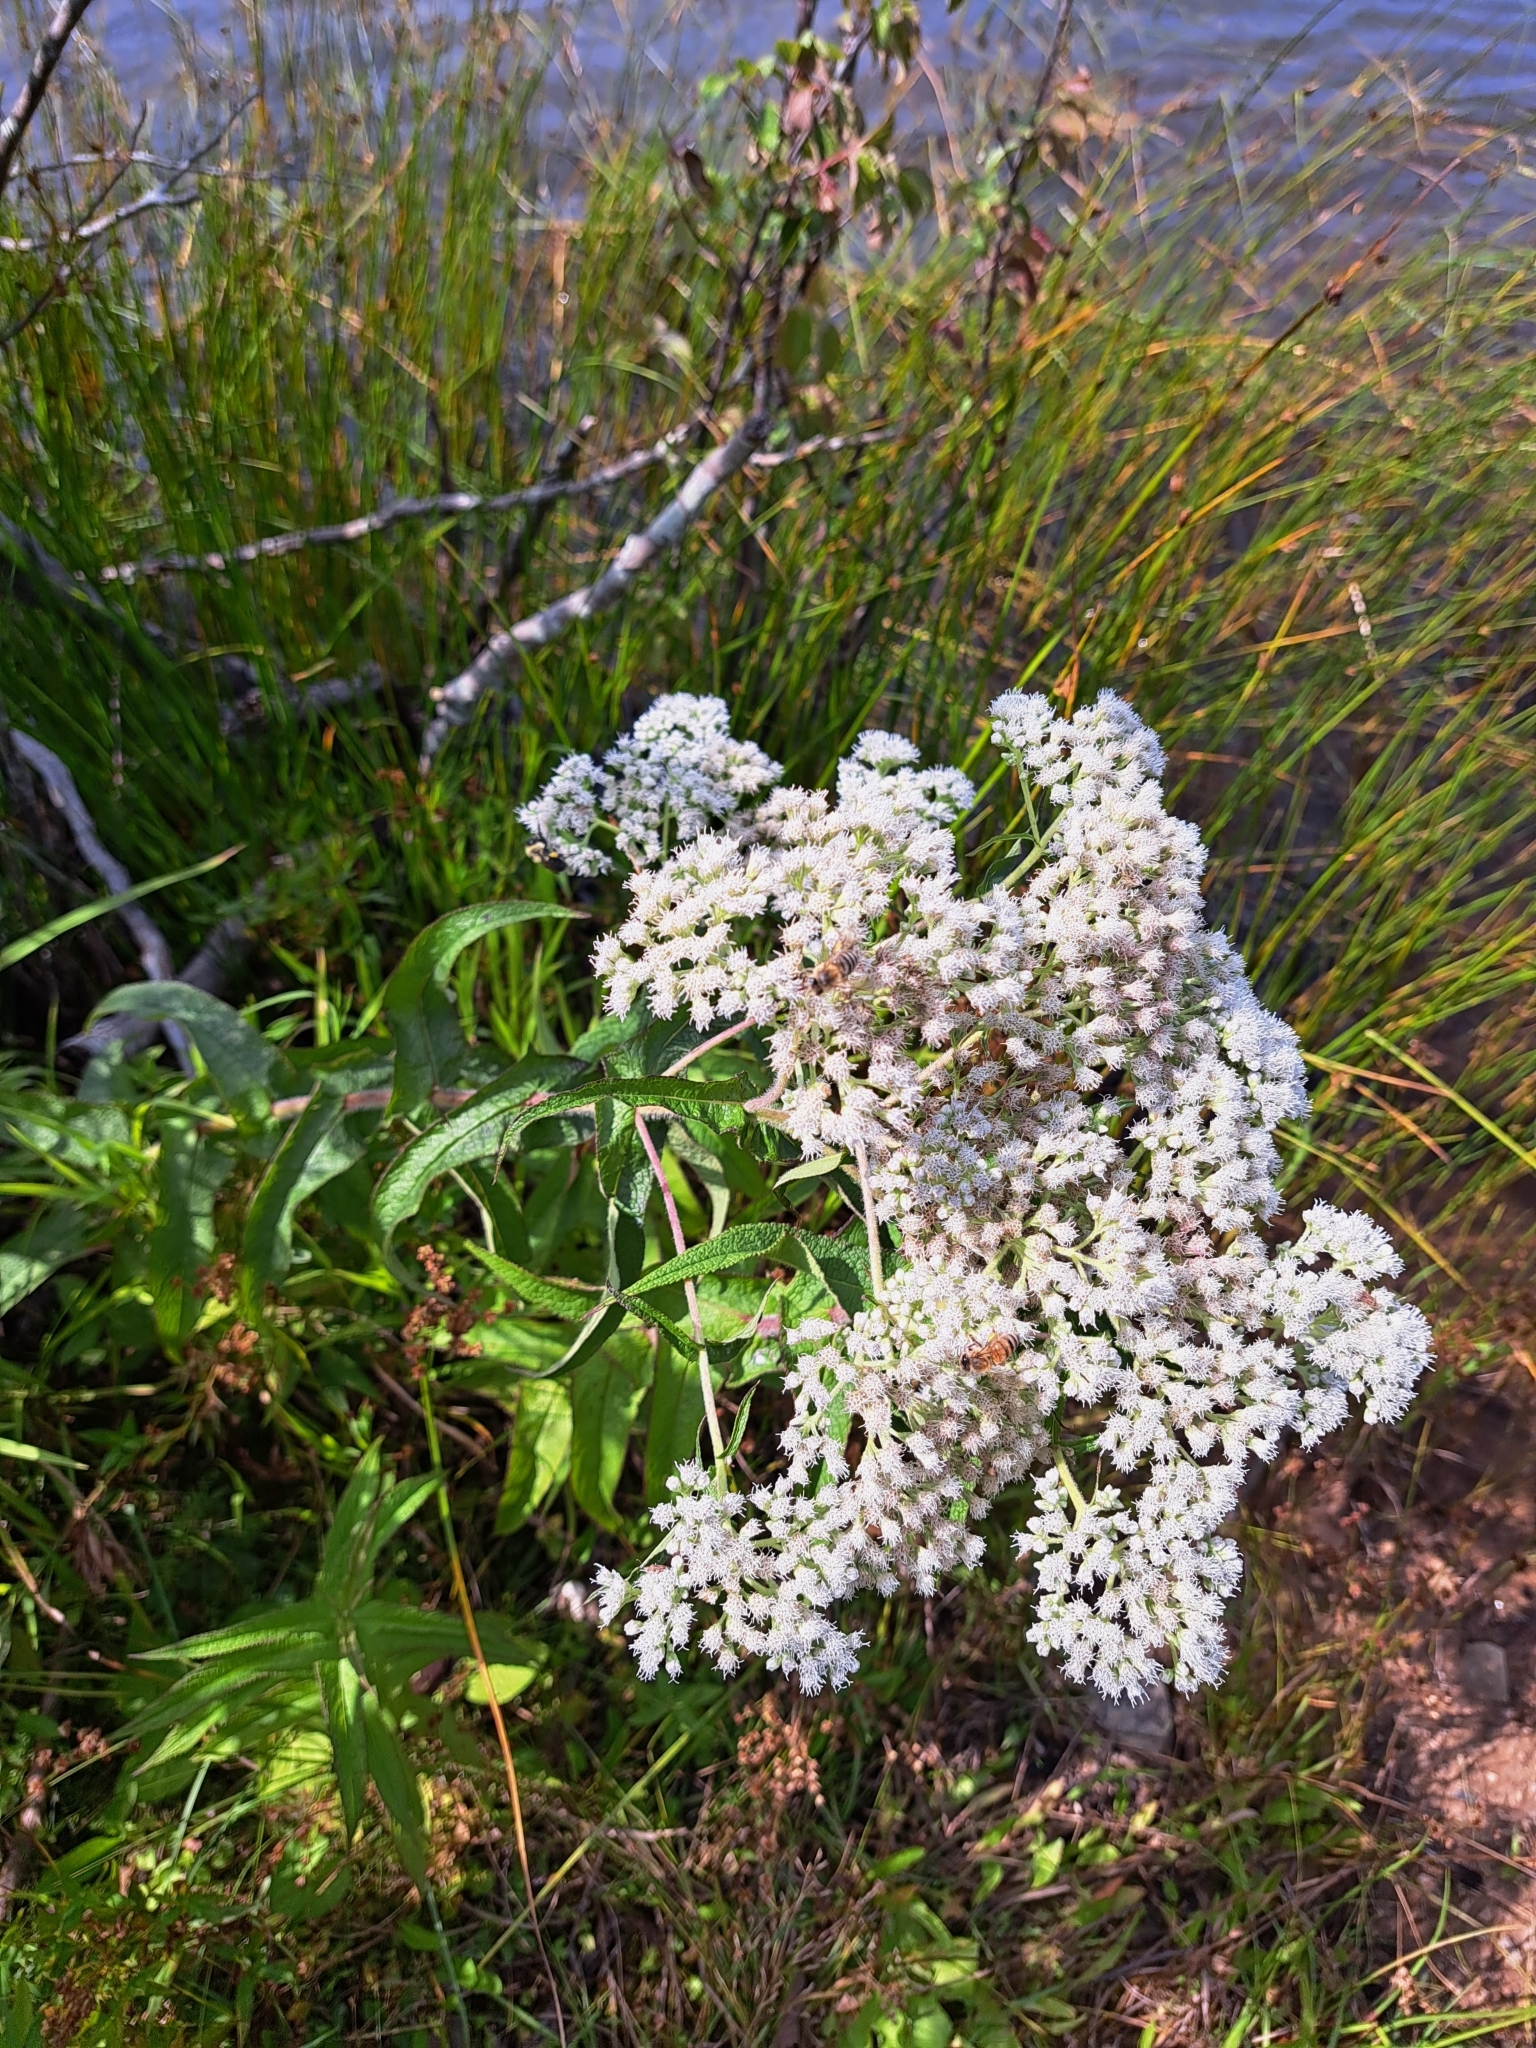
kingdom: Plantae
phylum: Tracheophyta
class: Magnoliopsida
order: Asterales
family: Asteraceae
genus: Eupatorium
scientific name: Eupatorium perfoliatum
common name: Boneset
